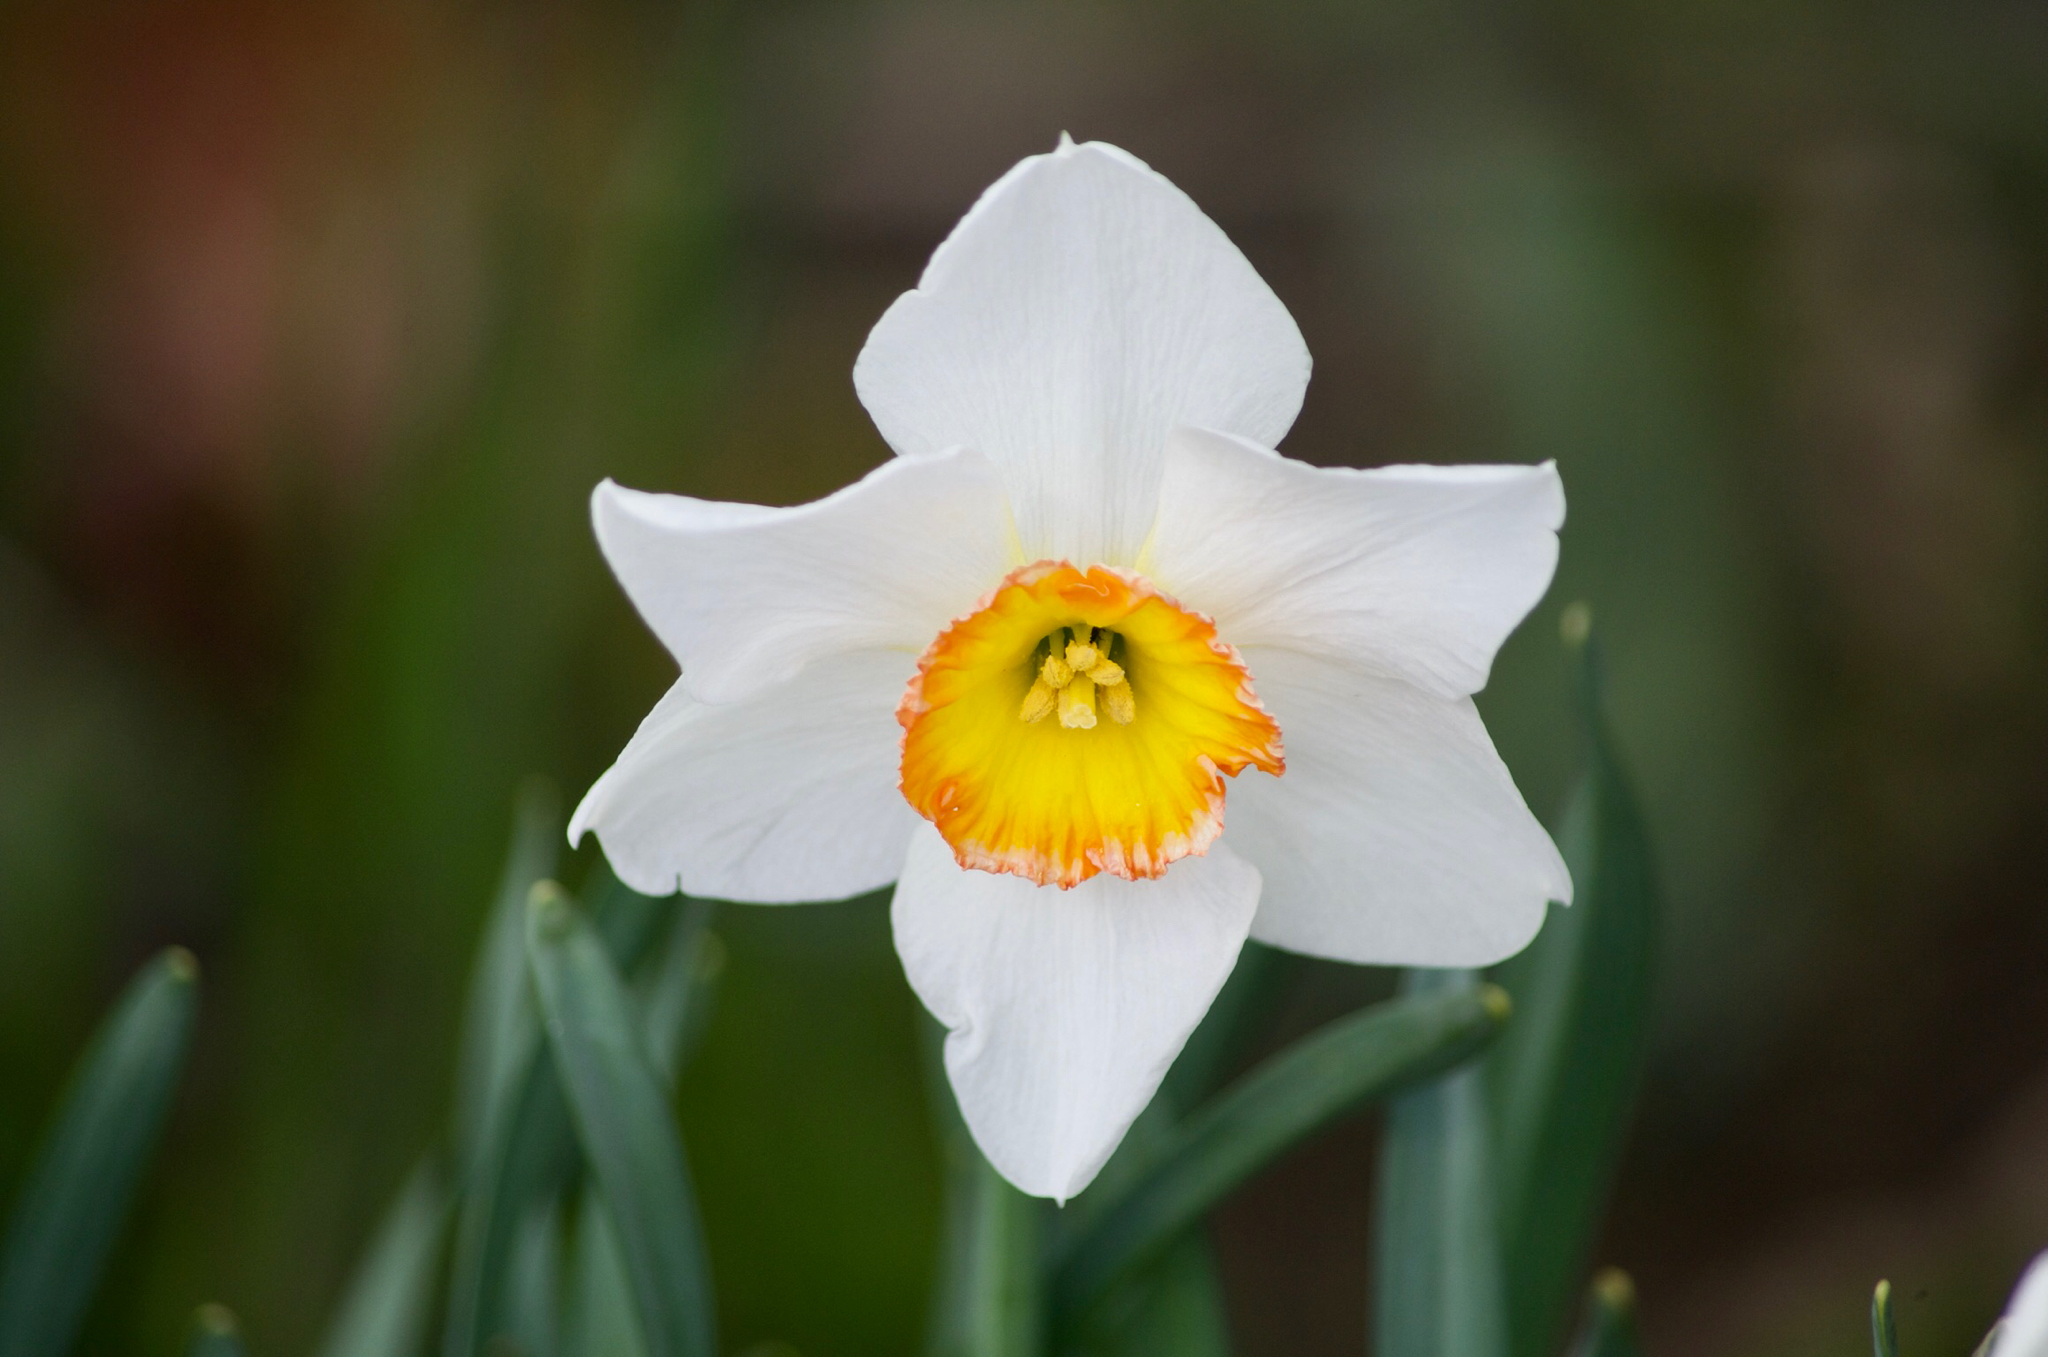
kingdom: Plantae
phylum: Tracheophyta
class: Liliopsida
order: Asparagales
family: Amaryllidaceae
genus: Narcissus
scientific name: Narcissus poeticus
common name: Pheasant's-eye daffodil
